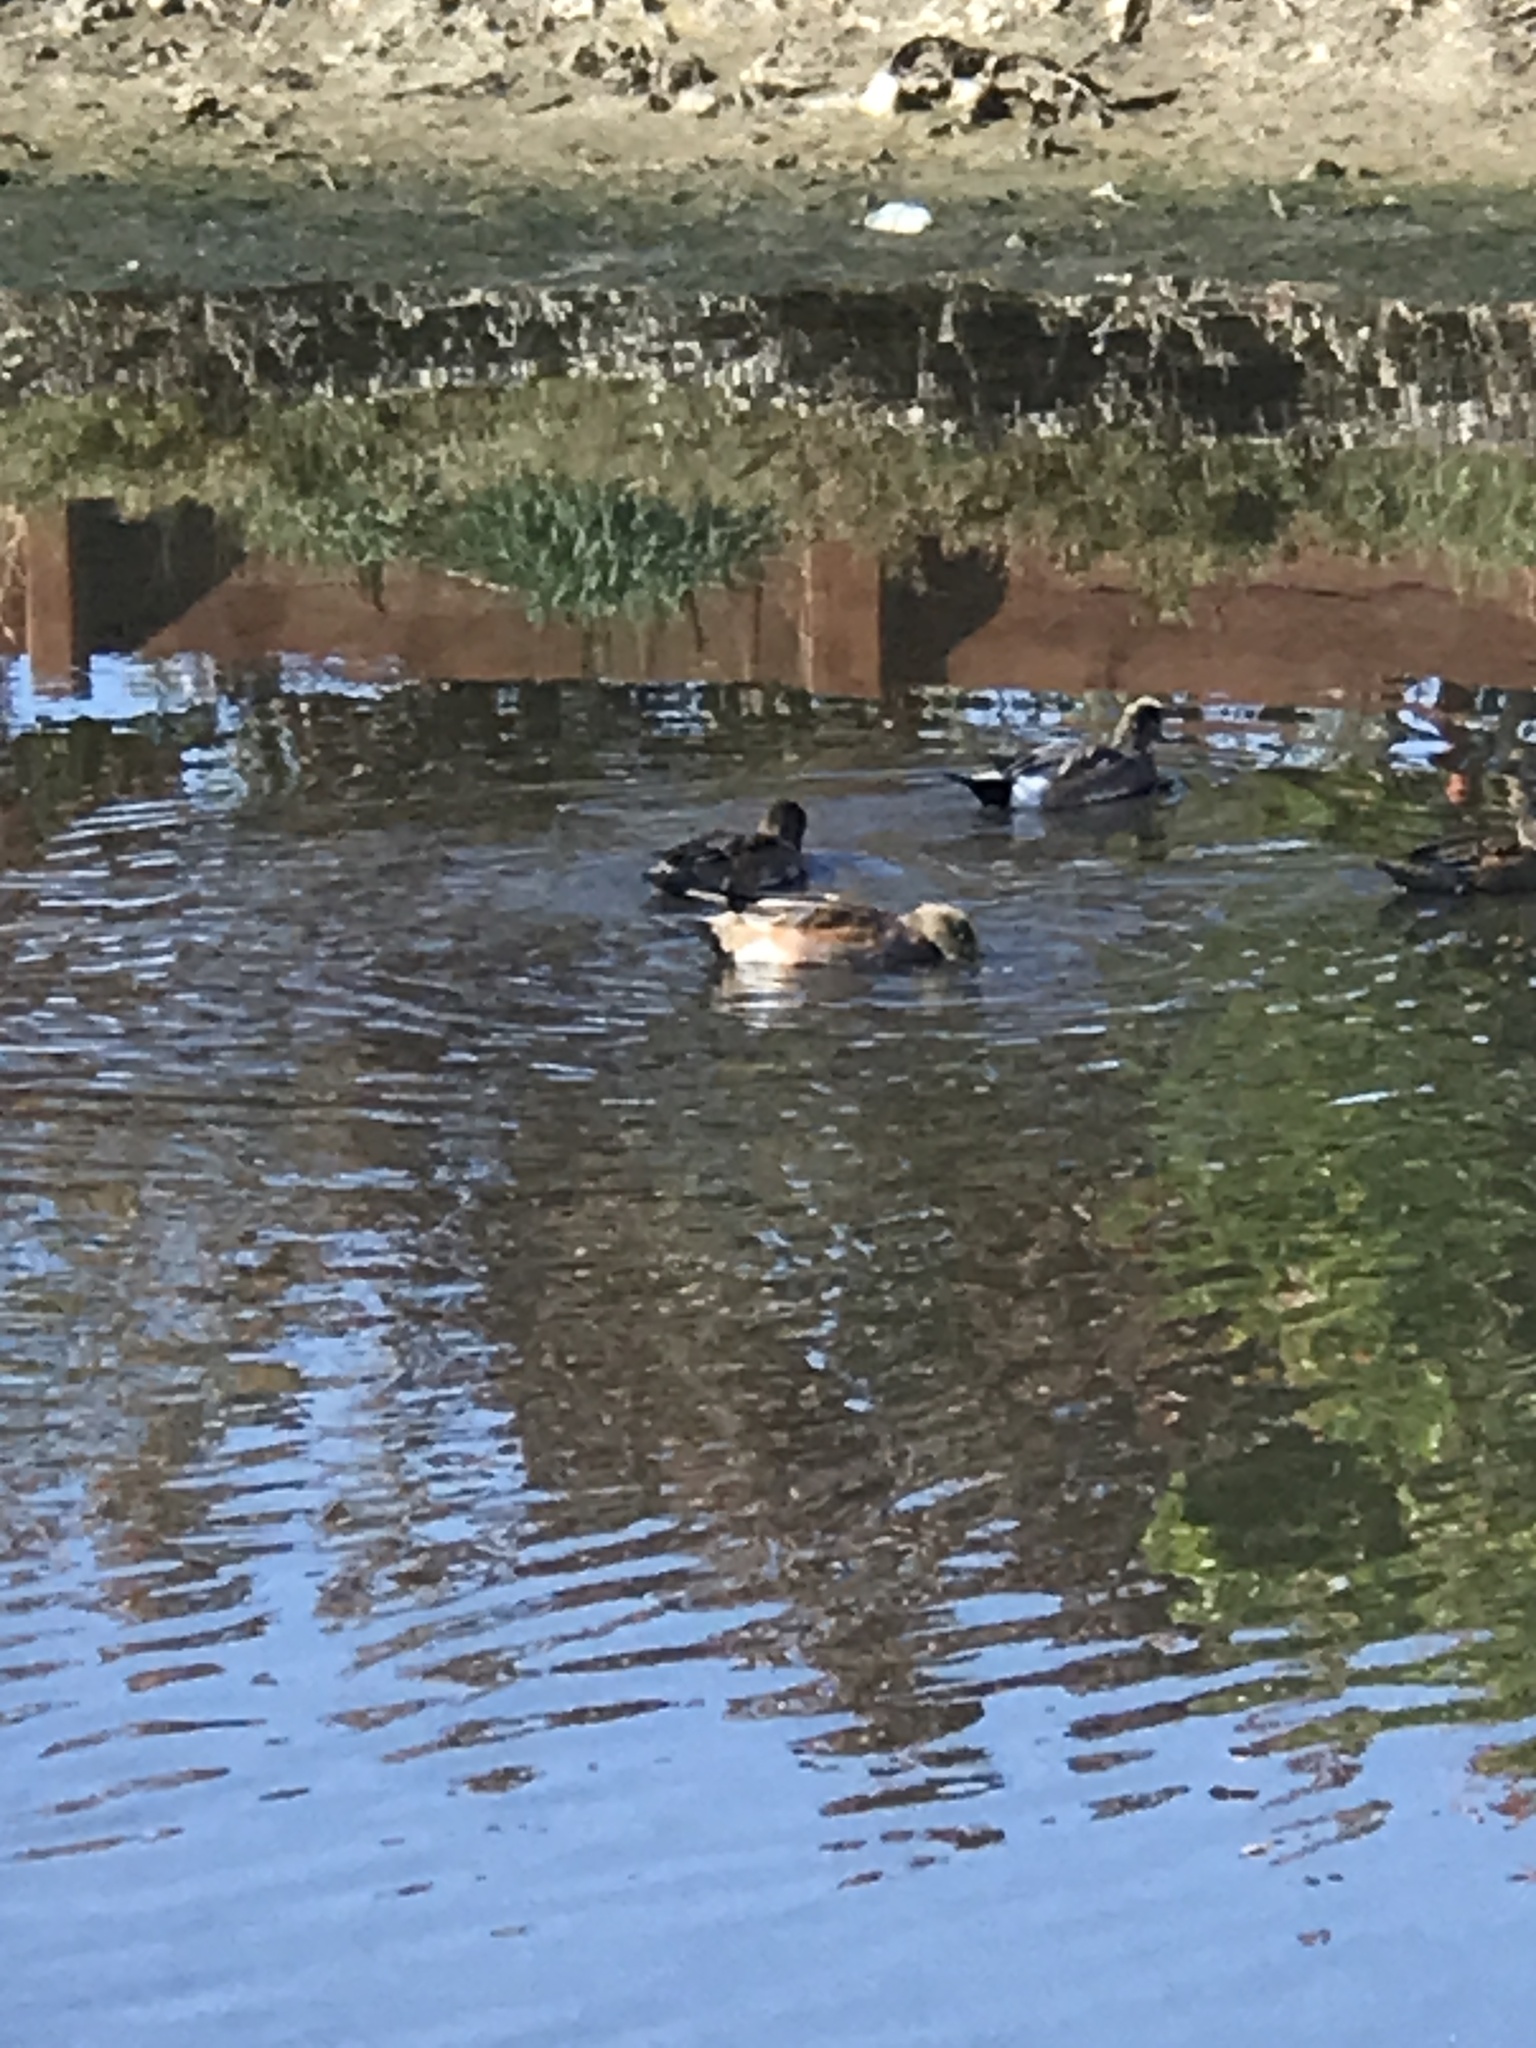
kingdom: Animalia
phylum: Chordata
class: Aves
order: Anseriformes
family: Anatidae
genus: Mareca
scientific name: Mareca americana
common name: American wigeon
